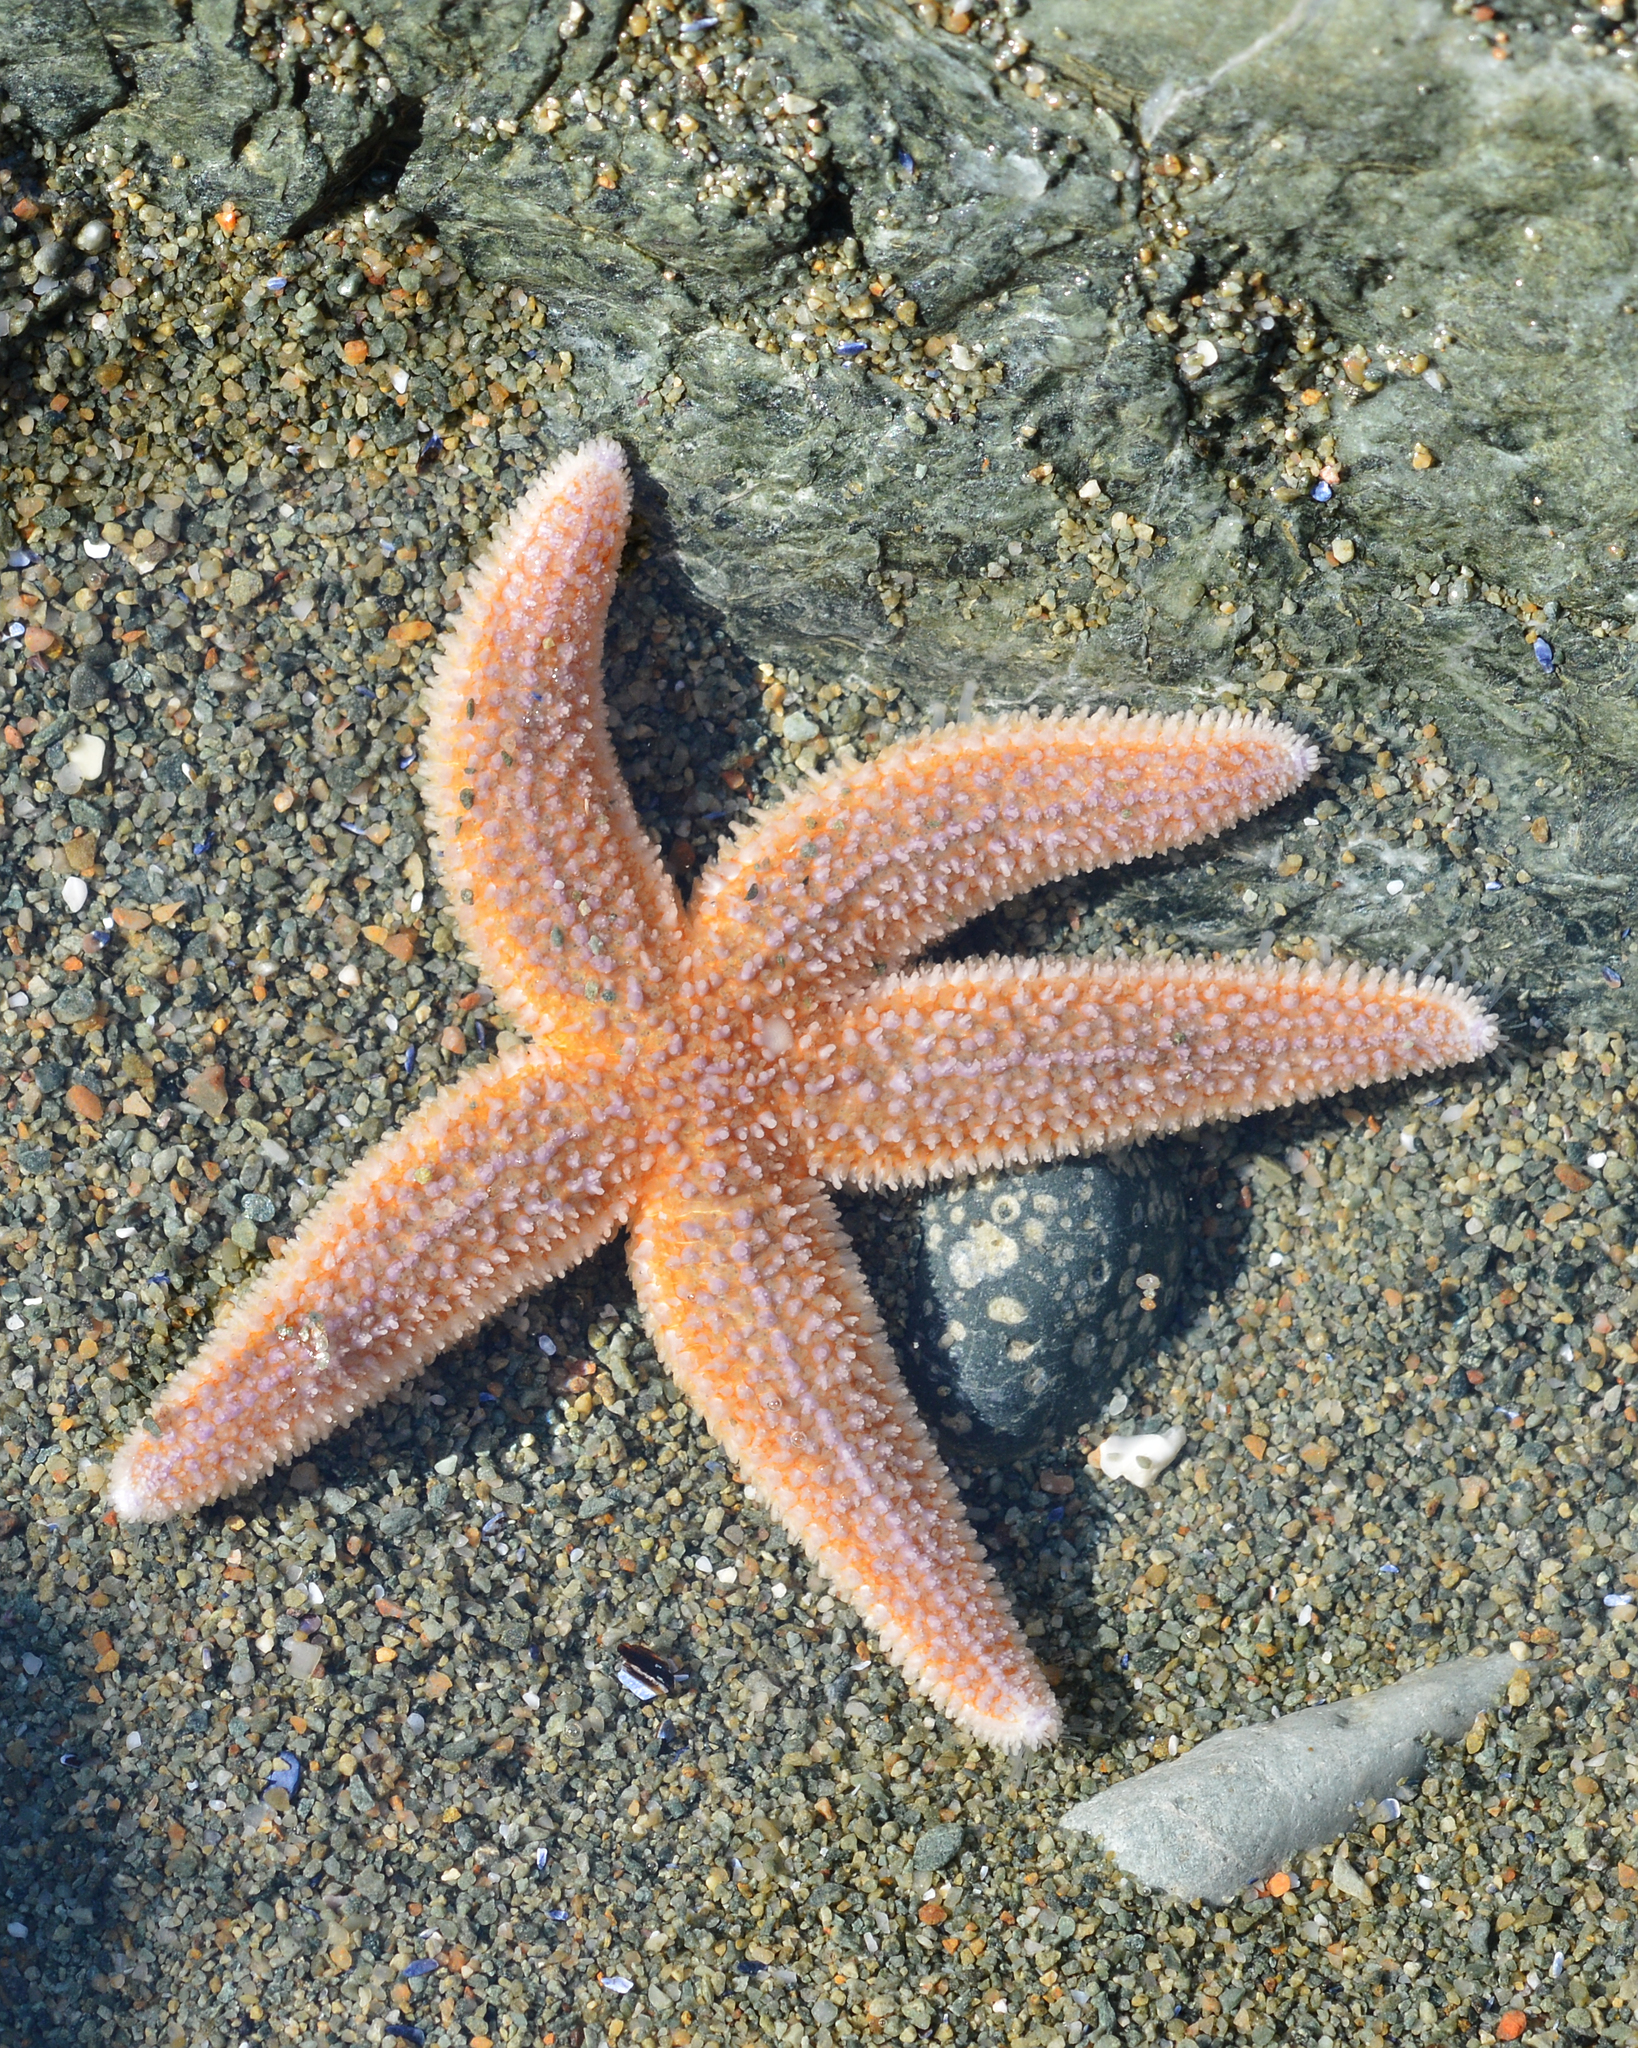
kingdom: Animalia
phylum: Echinodermata
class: Asteroidea
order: Forcipulatida
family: Asteriidae
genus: Asterias
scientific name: Asterias rubens
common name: Common starfish
